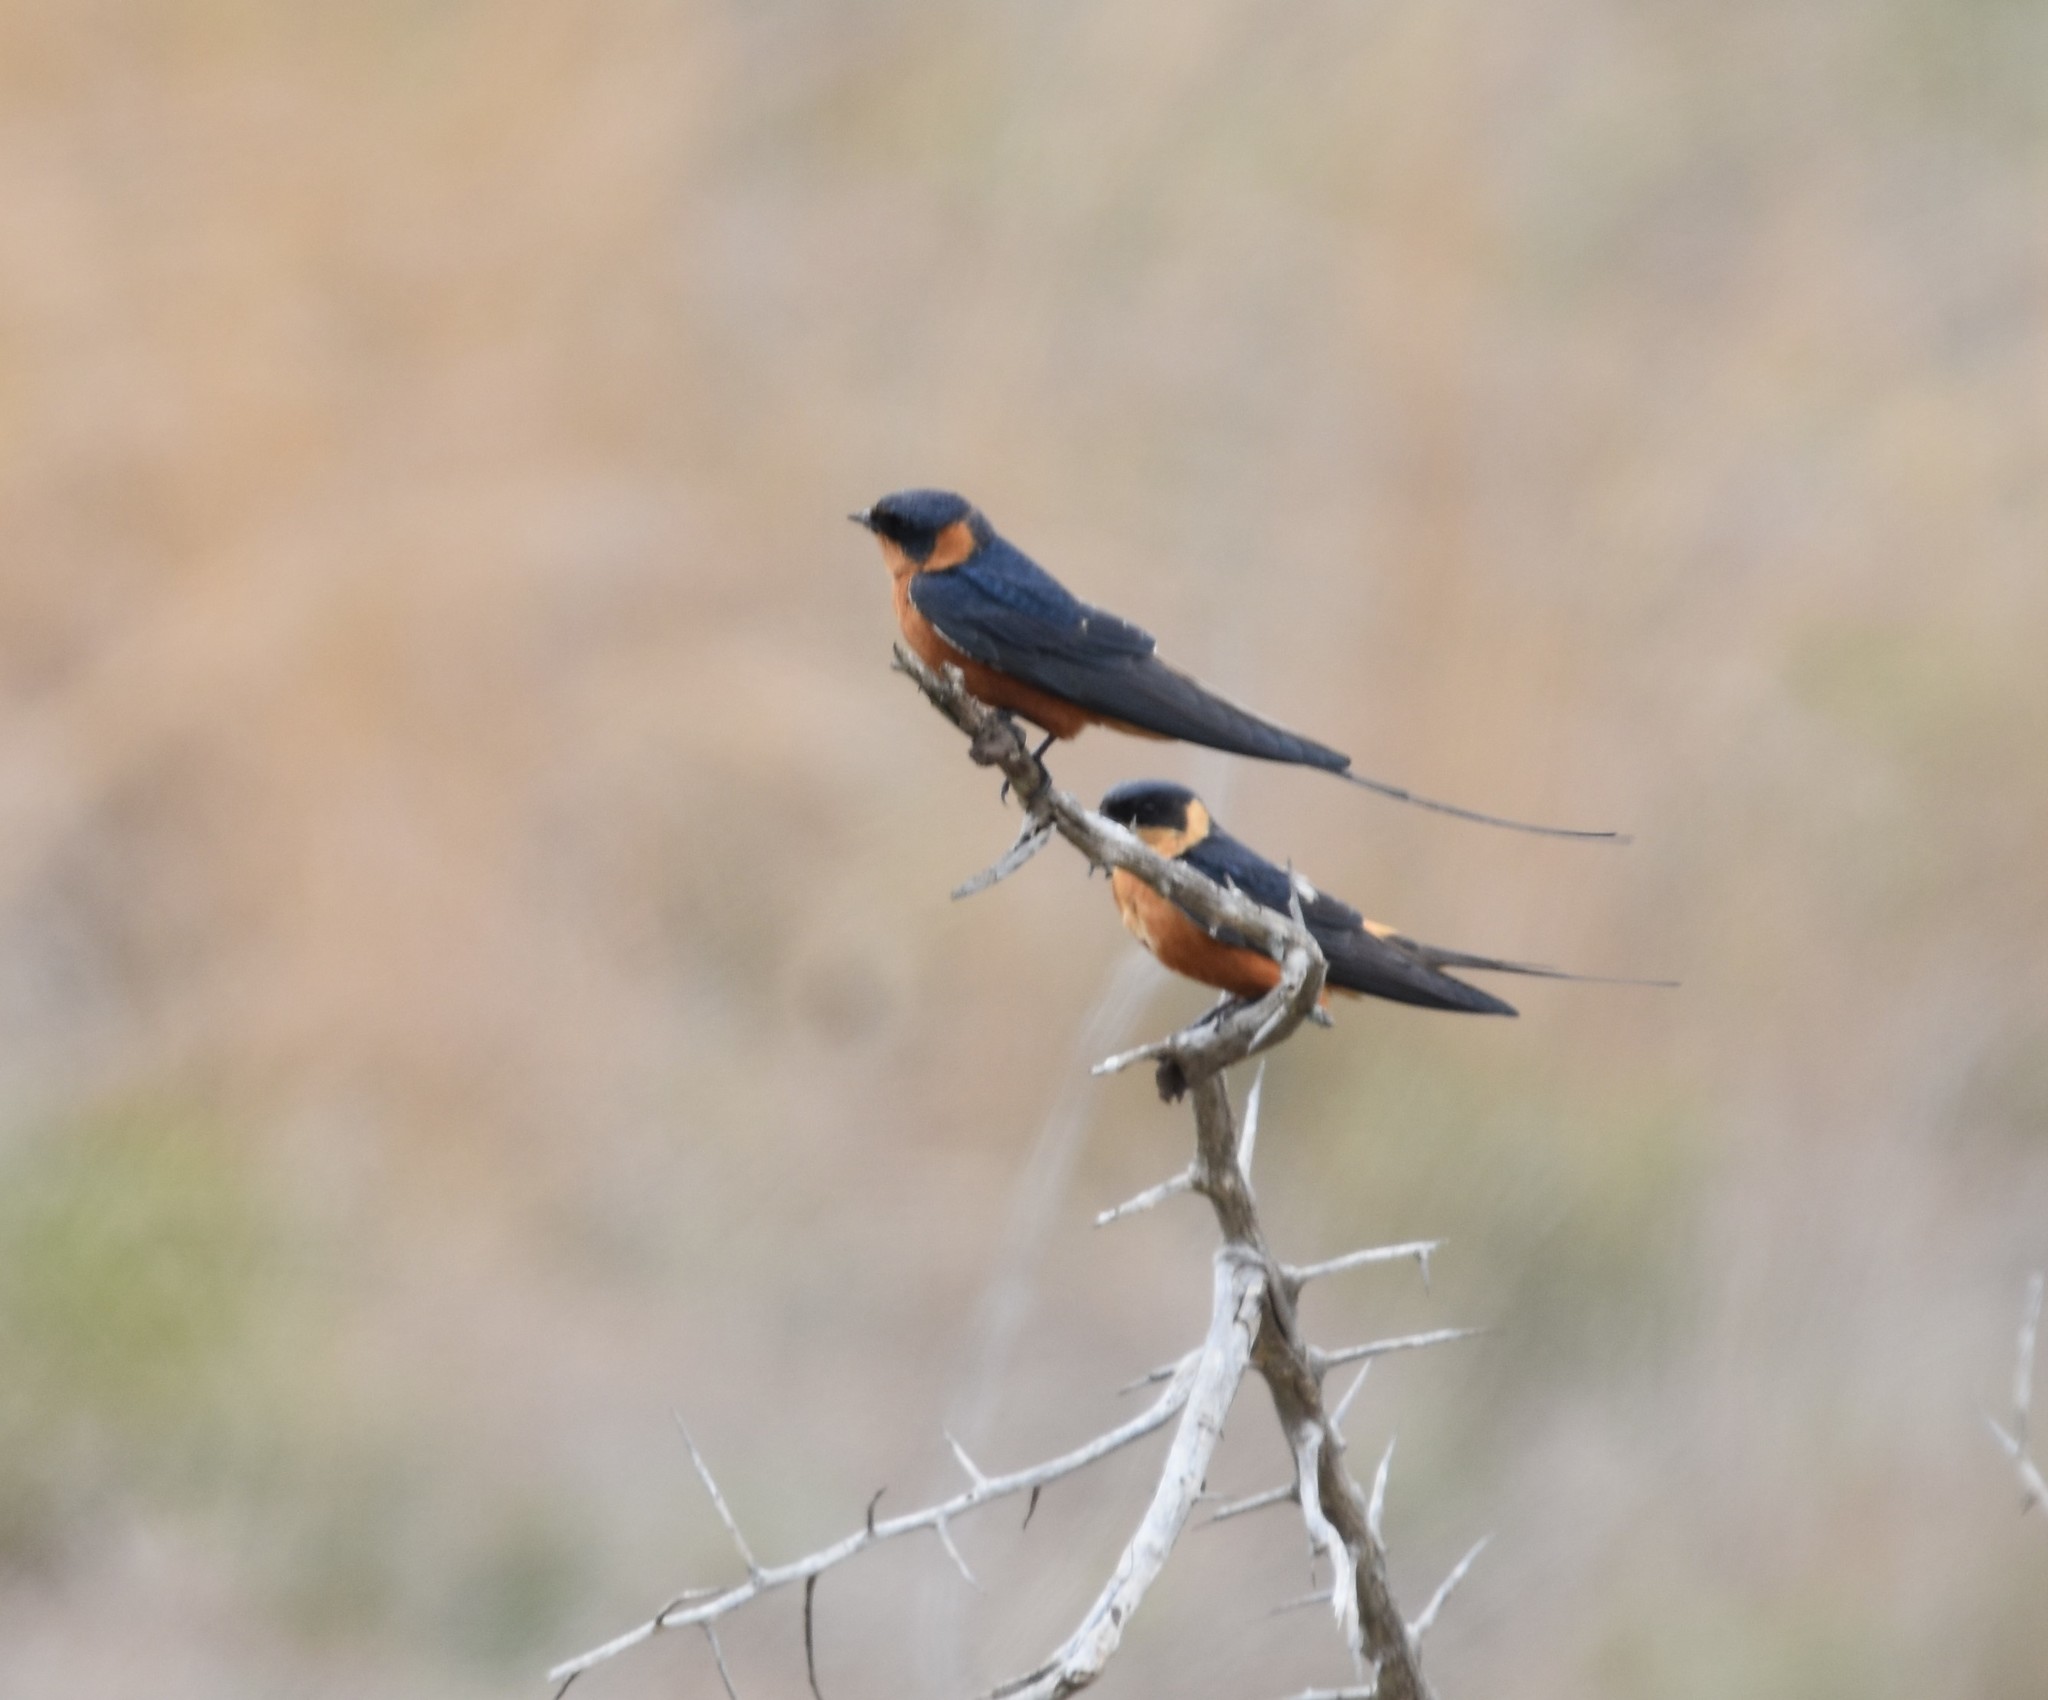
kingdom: Animalia
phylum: Chordata
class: Aves
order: Passeriformes
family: Hirundinidae
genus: Cecropis
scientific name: Cecropis semirufa
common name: Red-breasted swallow
